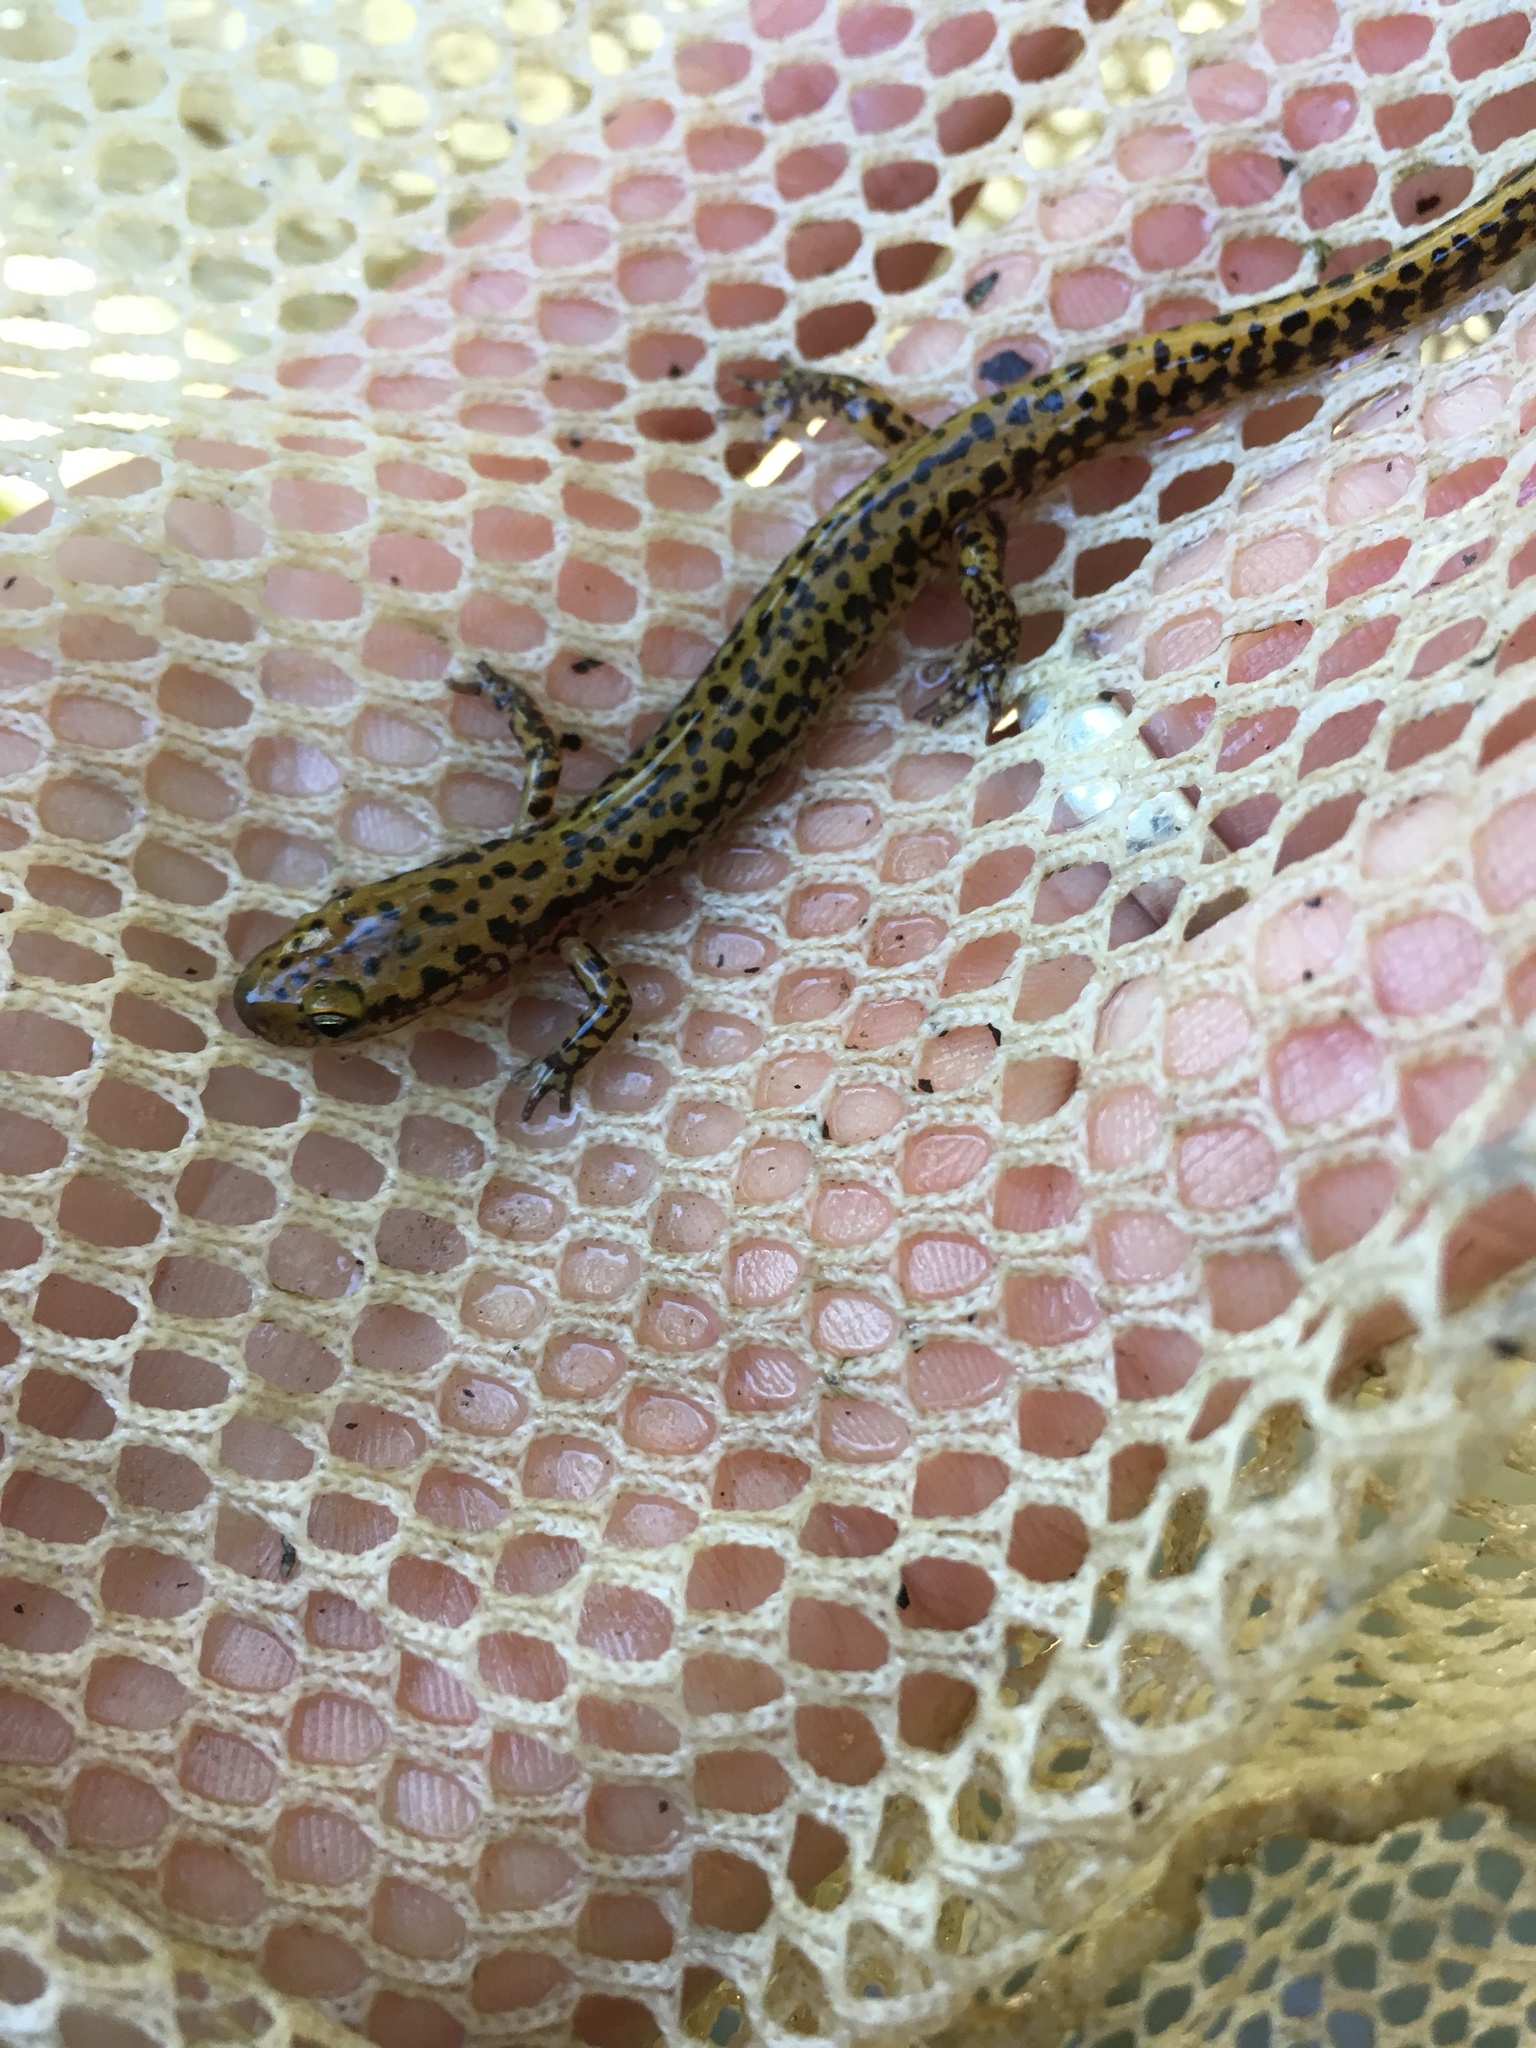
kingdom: Animalia
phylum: Chordata
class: Amphibia
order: Caudata
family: Plethodontidae
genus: Eurycea
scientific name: Eurycea longicauda
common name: Long-tailed salamander
